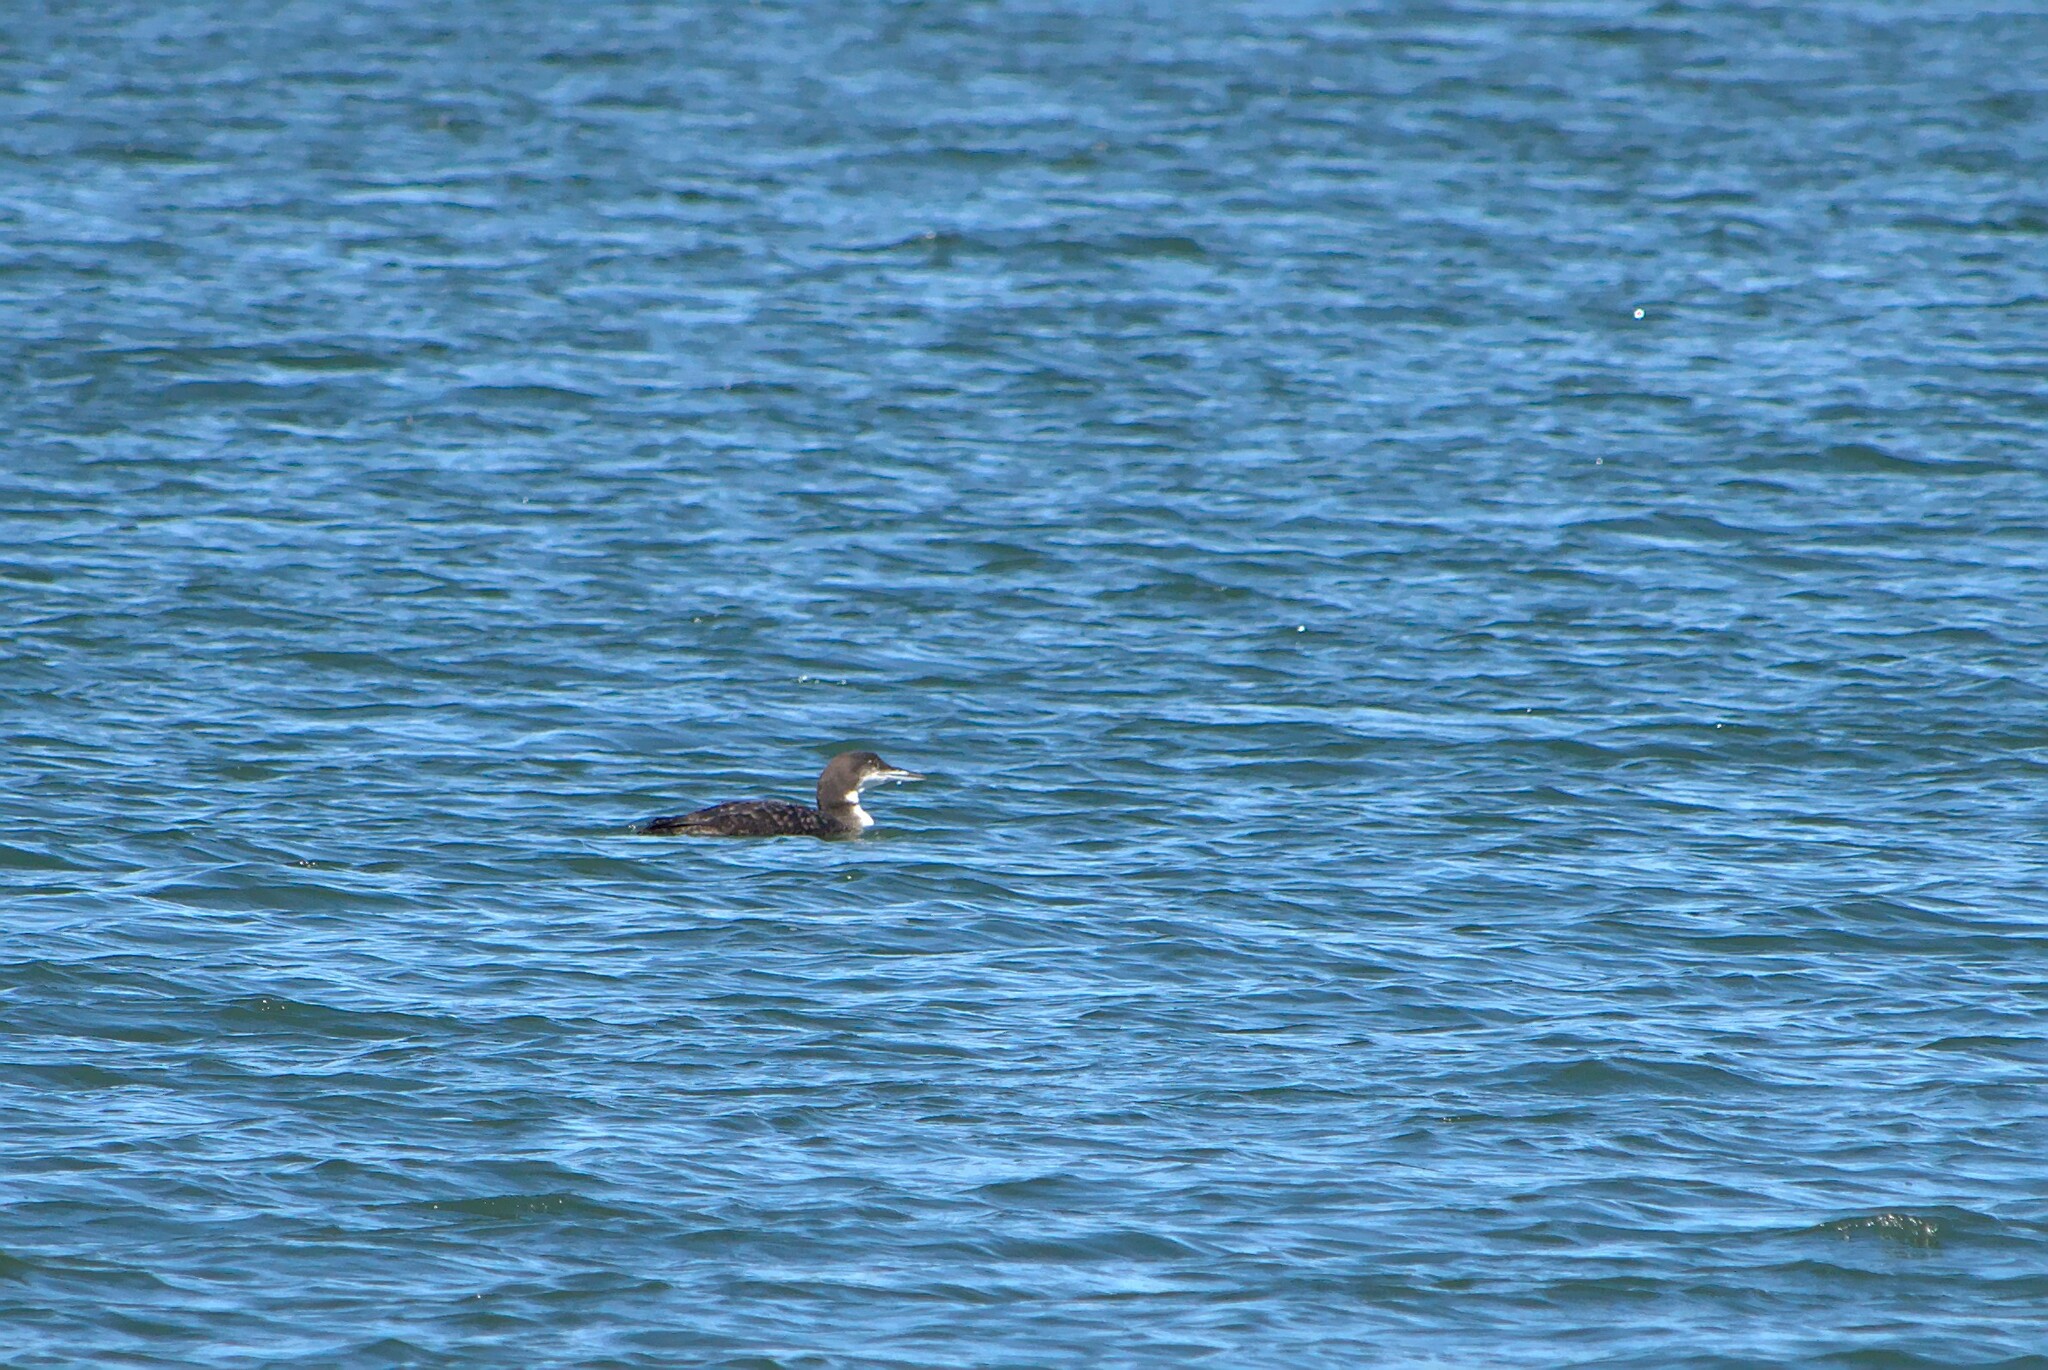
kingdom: Animalia
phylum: Chordata
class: Aves
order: Gaviiformes
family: Gaviidae
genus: Gavia
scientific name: Gavia immer
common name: Common loon
